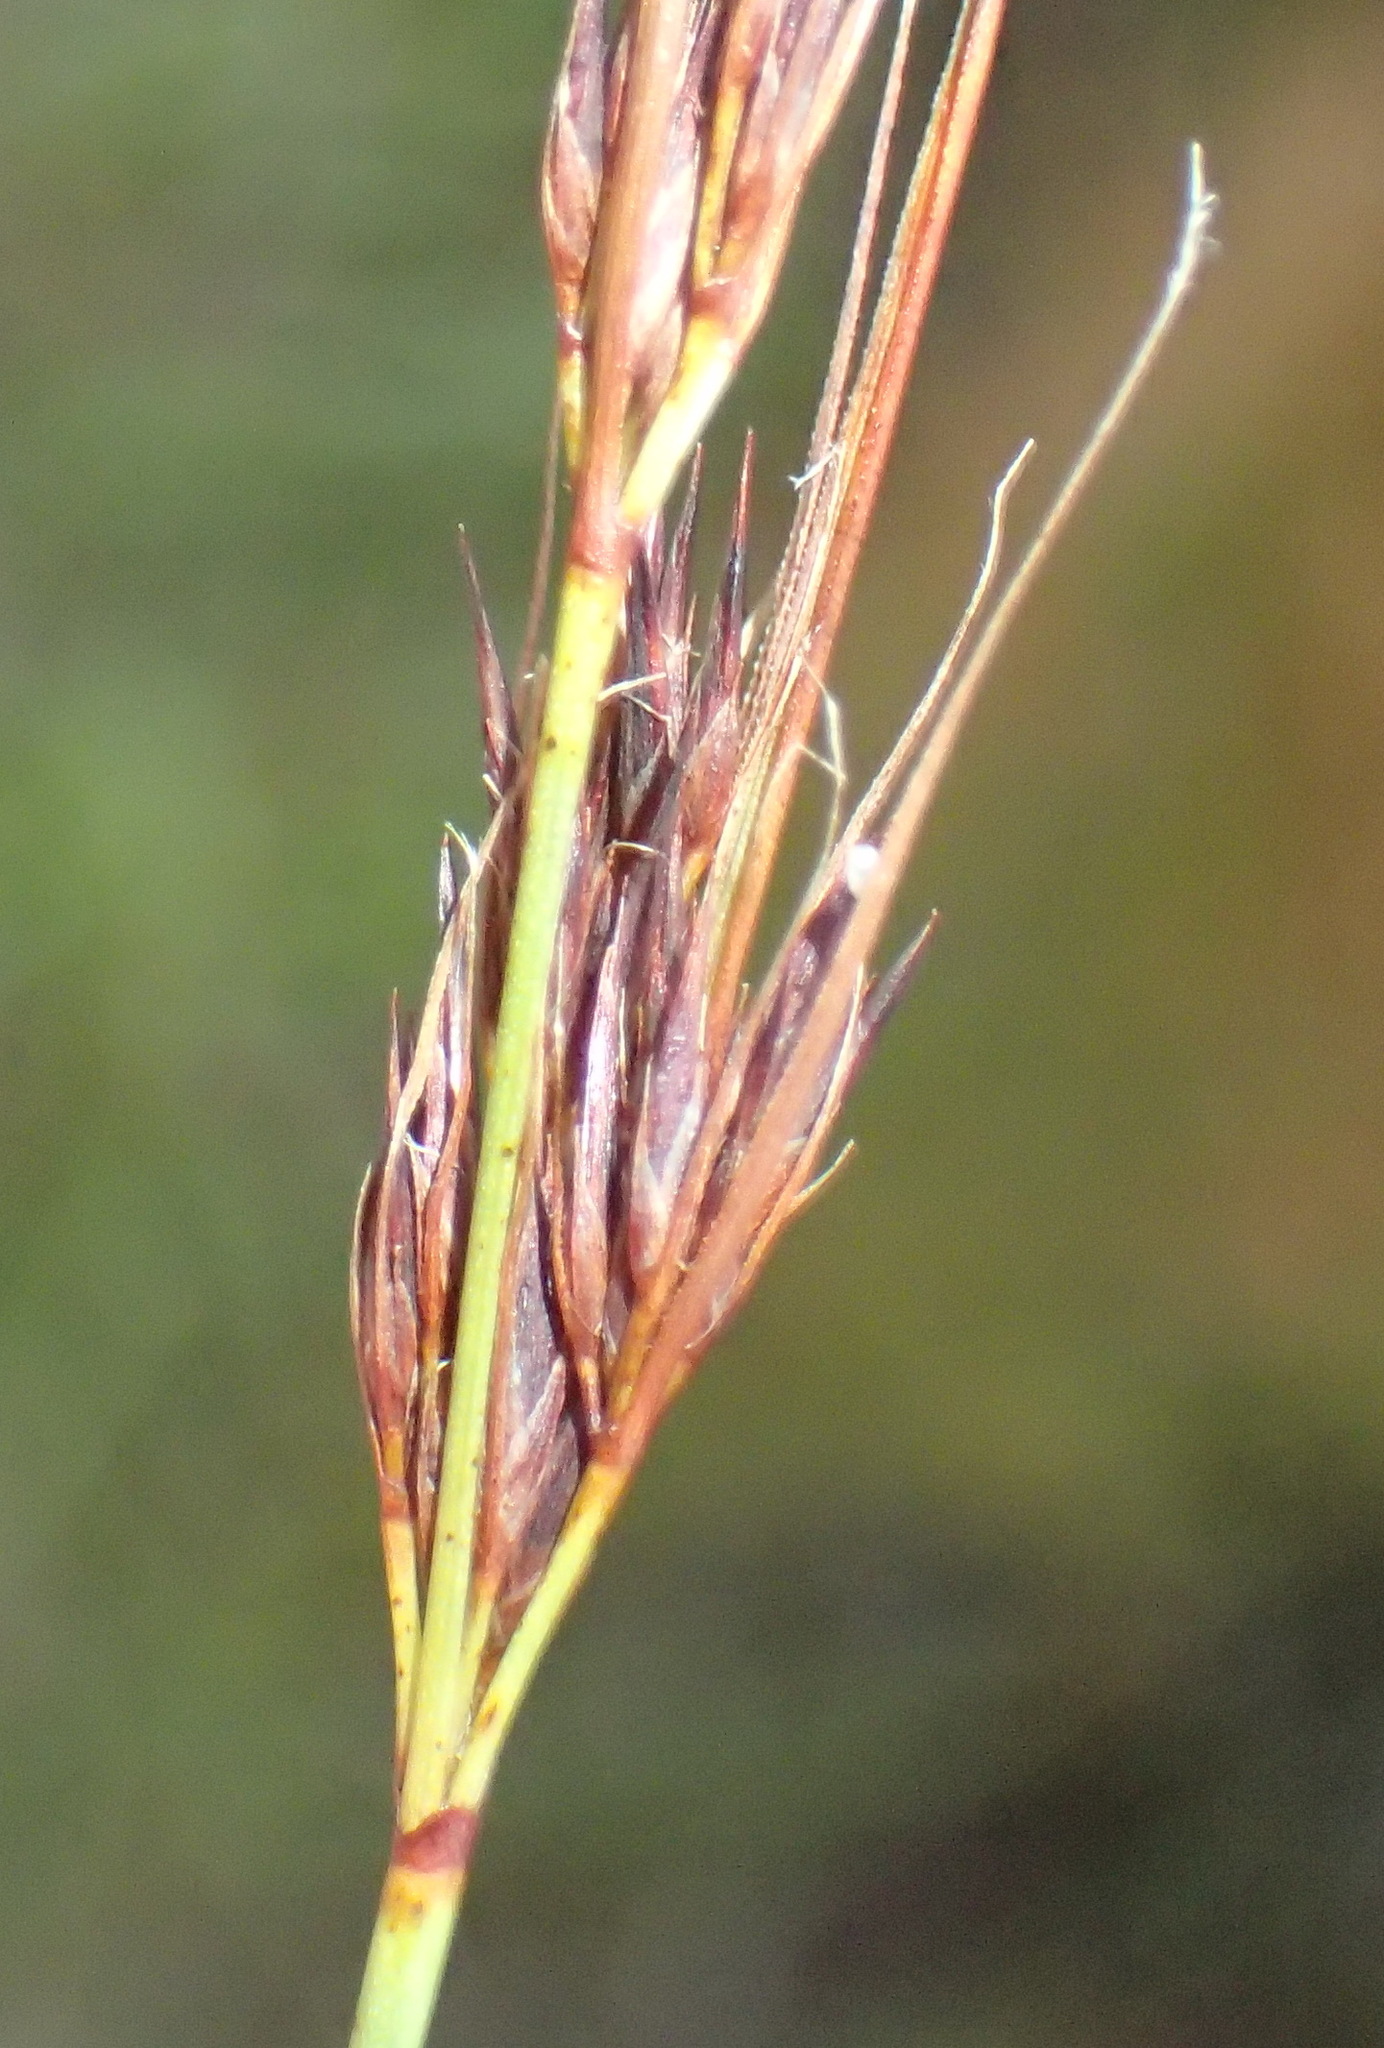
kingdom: Plantae
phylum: Tracheophyta
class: Liliopsida
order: Poales
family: Cyperaceae
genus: Schoenus
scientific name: Schoenus graciliculmis
